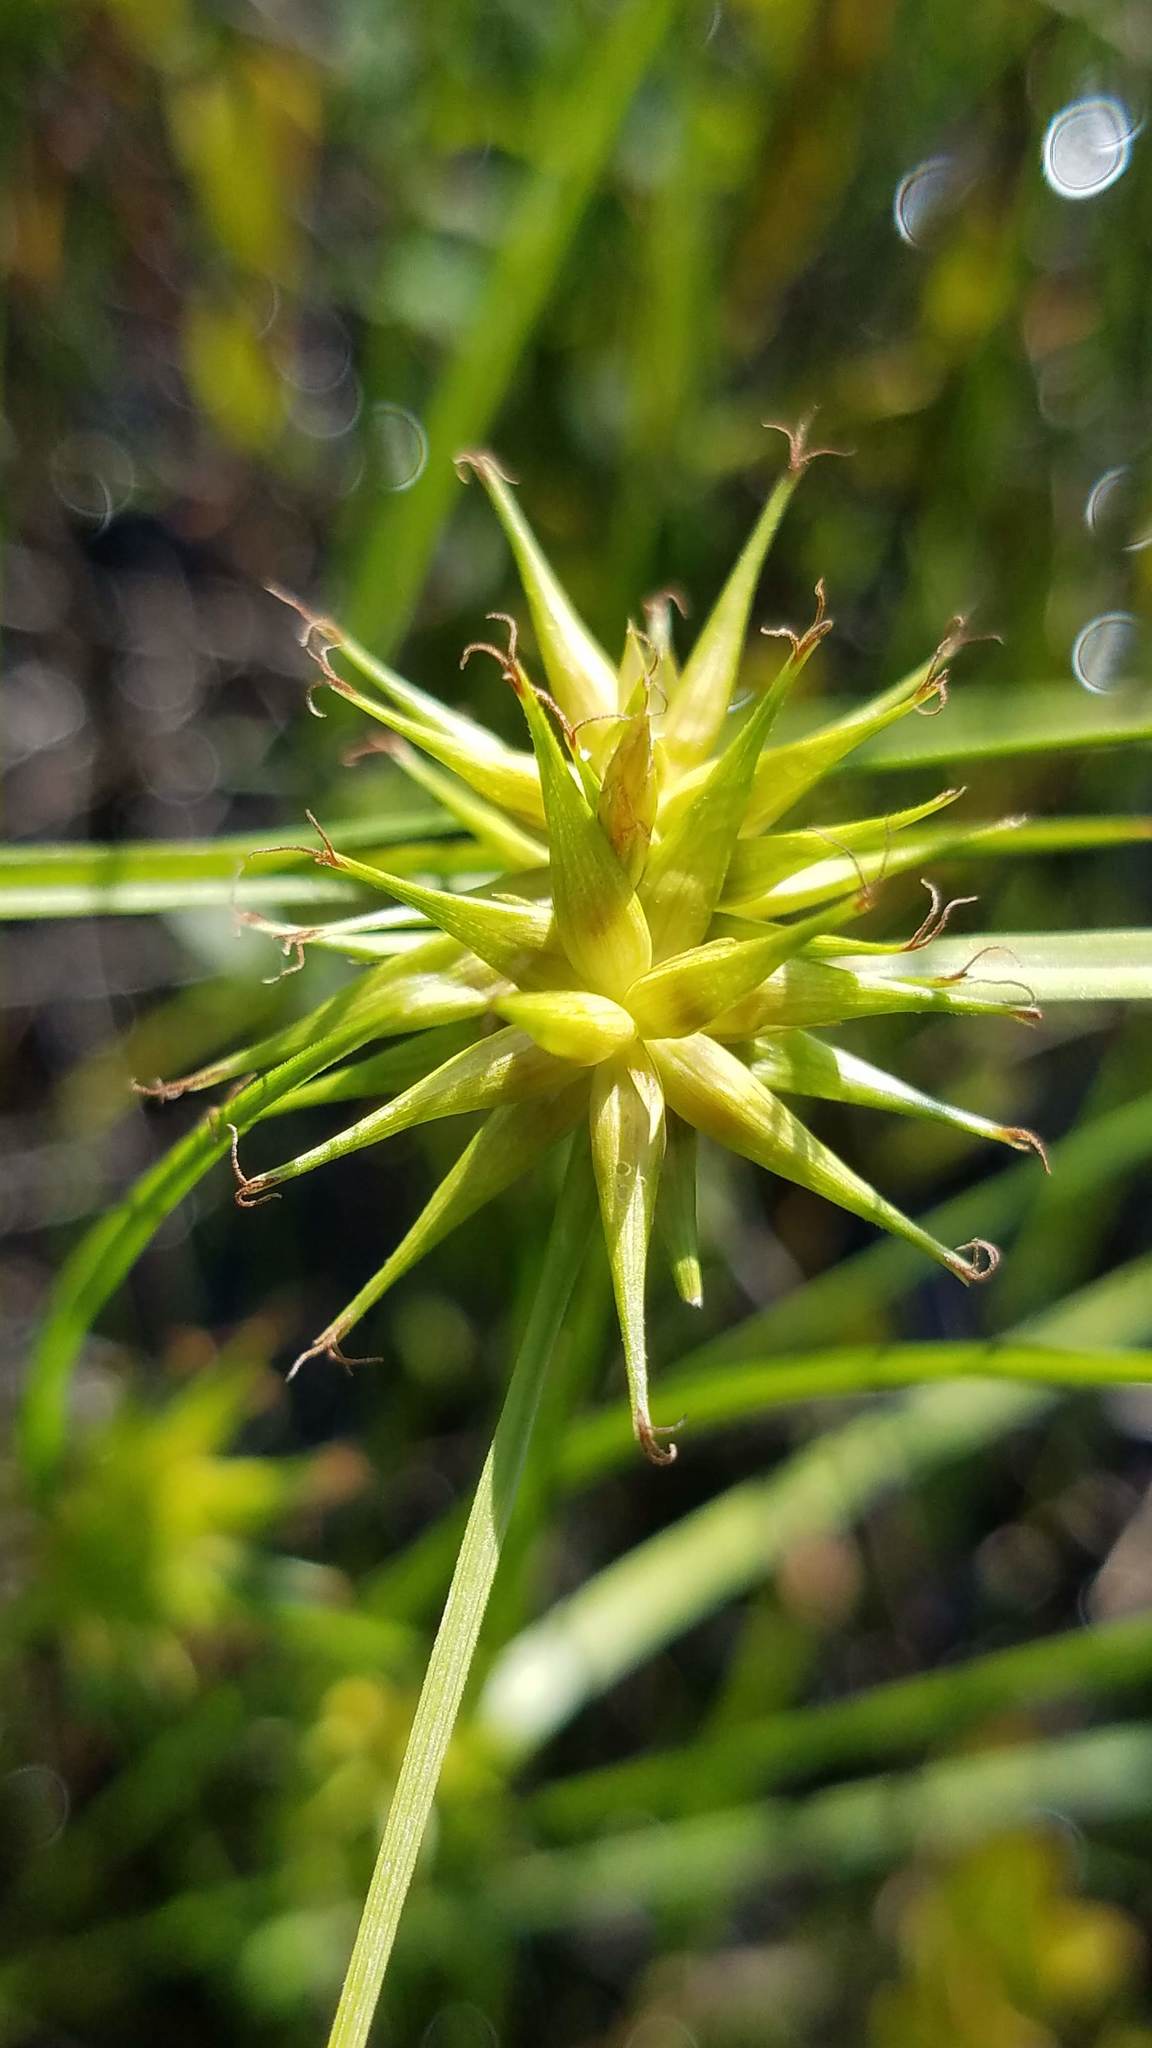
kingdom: Plantae
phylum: Tracheophyta
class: Liliopsida
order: Poales
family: Cyperaceae
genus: Carex
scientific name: Carex michauxiana
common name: Michaux's sedge
